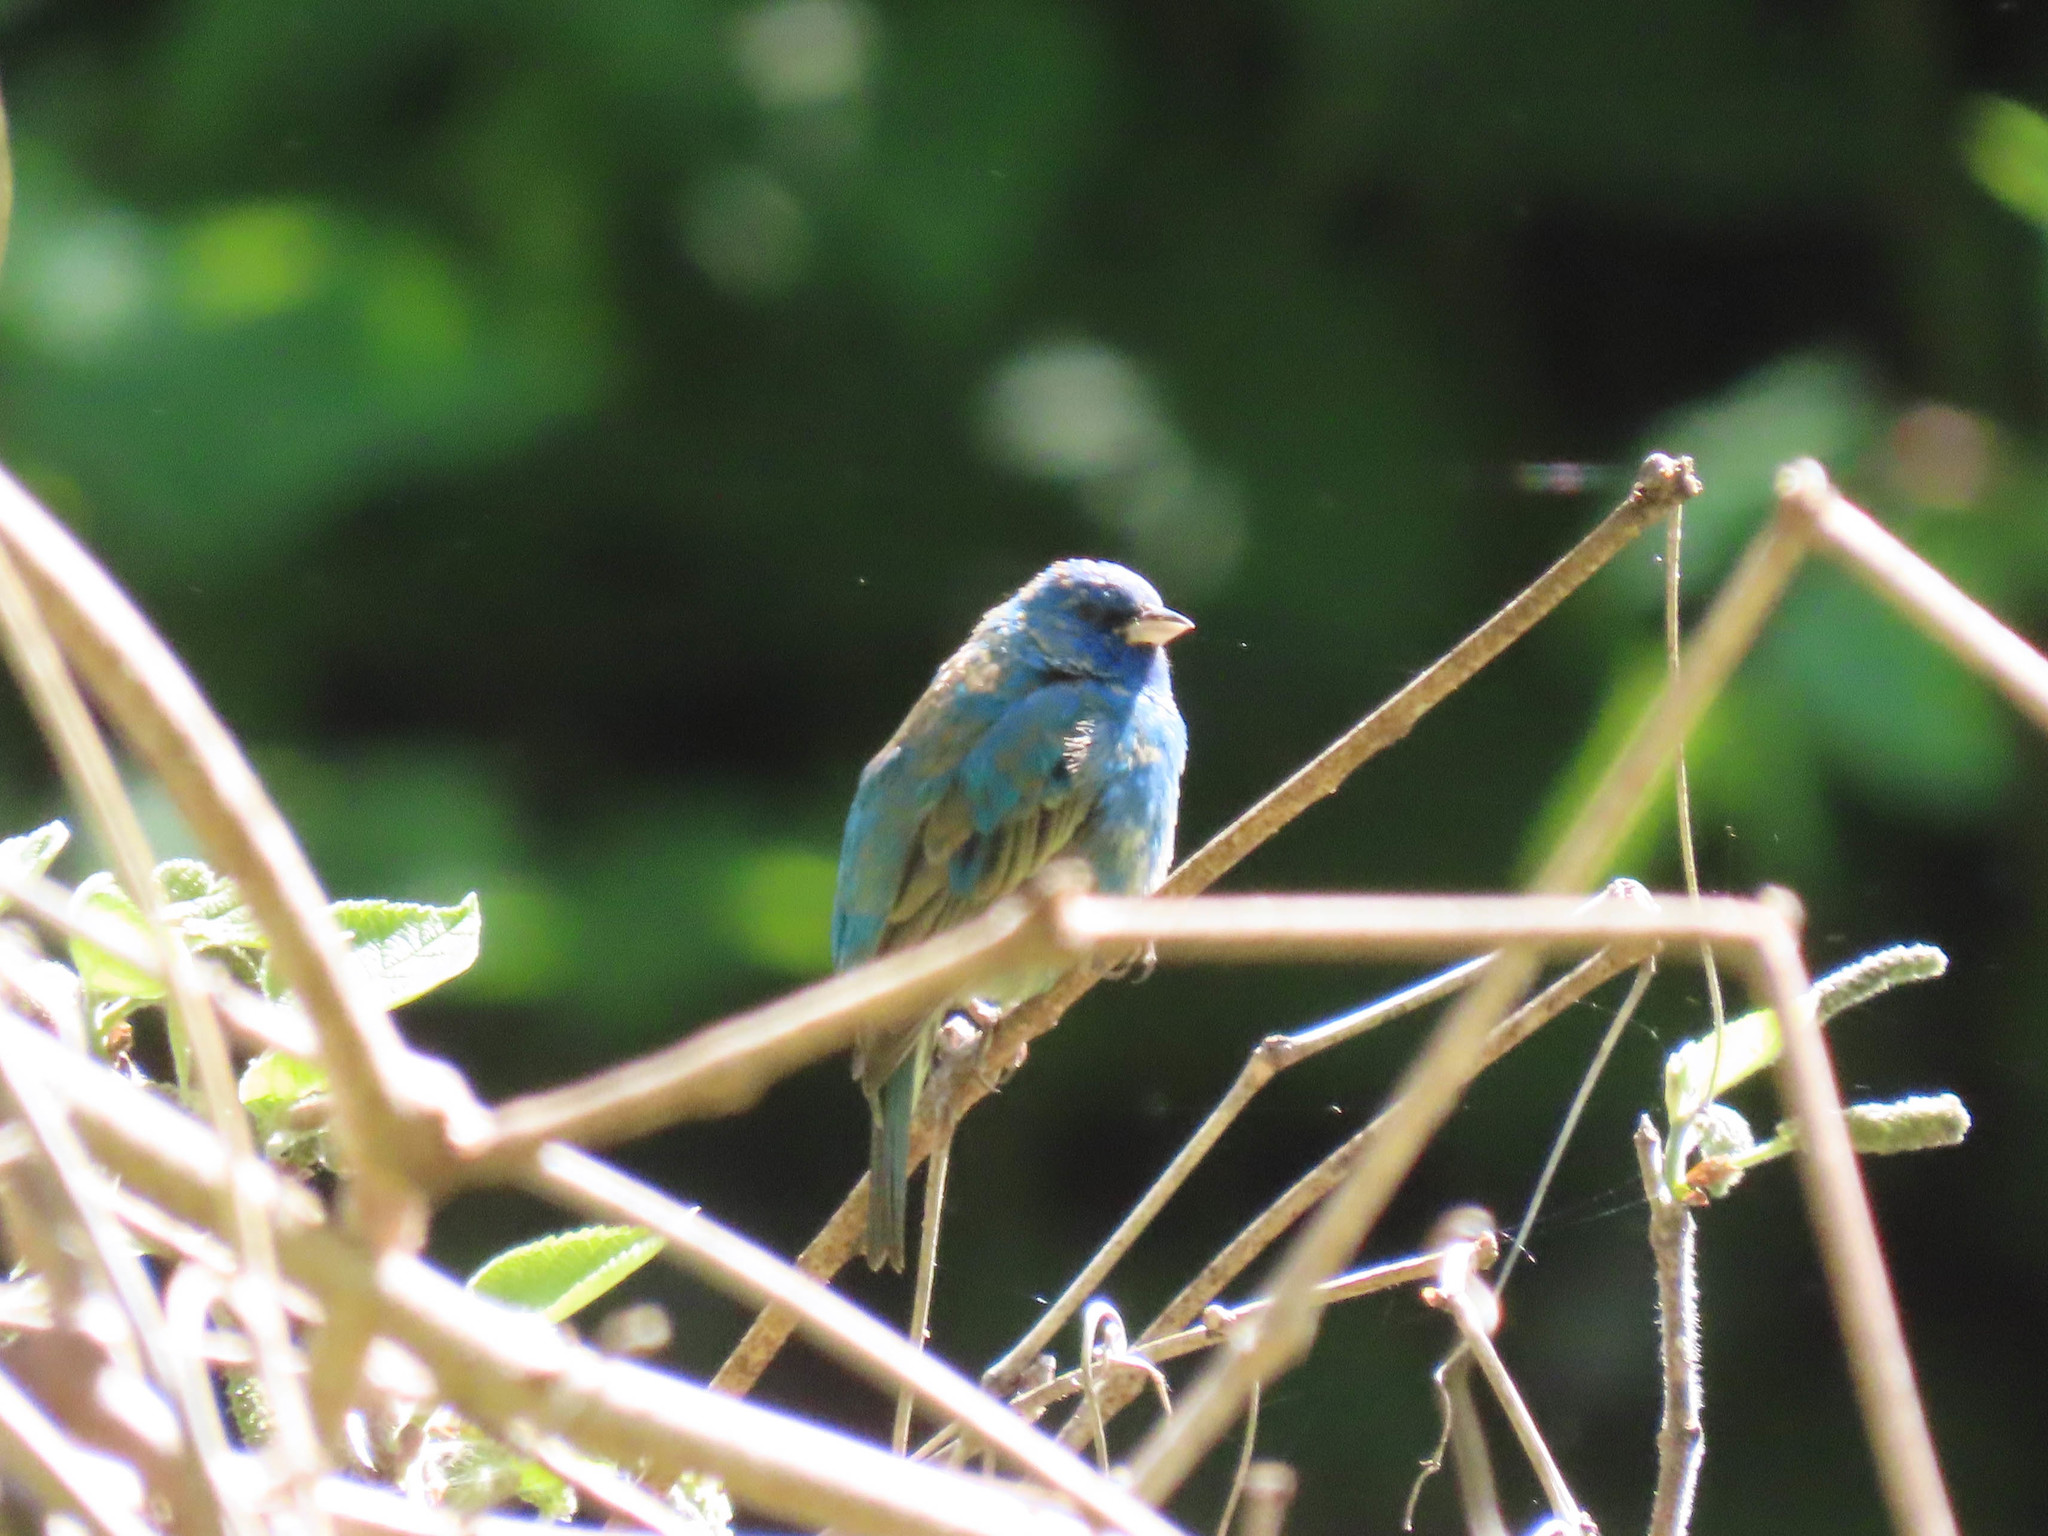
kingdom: Animalia
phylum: Chordata
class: Aves
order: Passeriformes
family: Cardinalidae
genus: Passerina
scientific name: Passerina cyanea
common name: Indigo bunting
